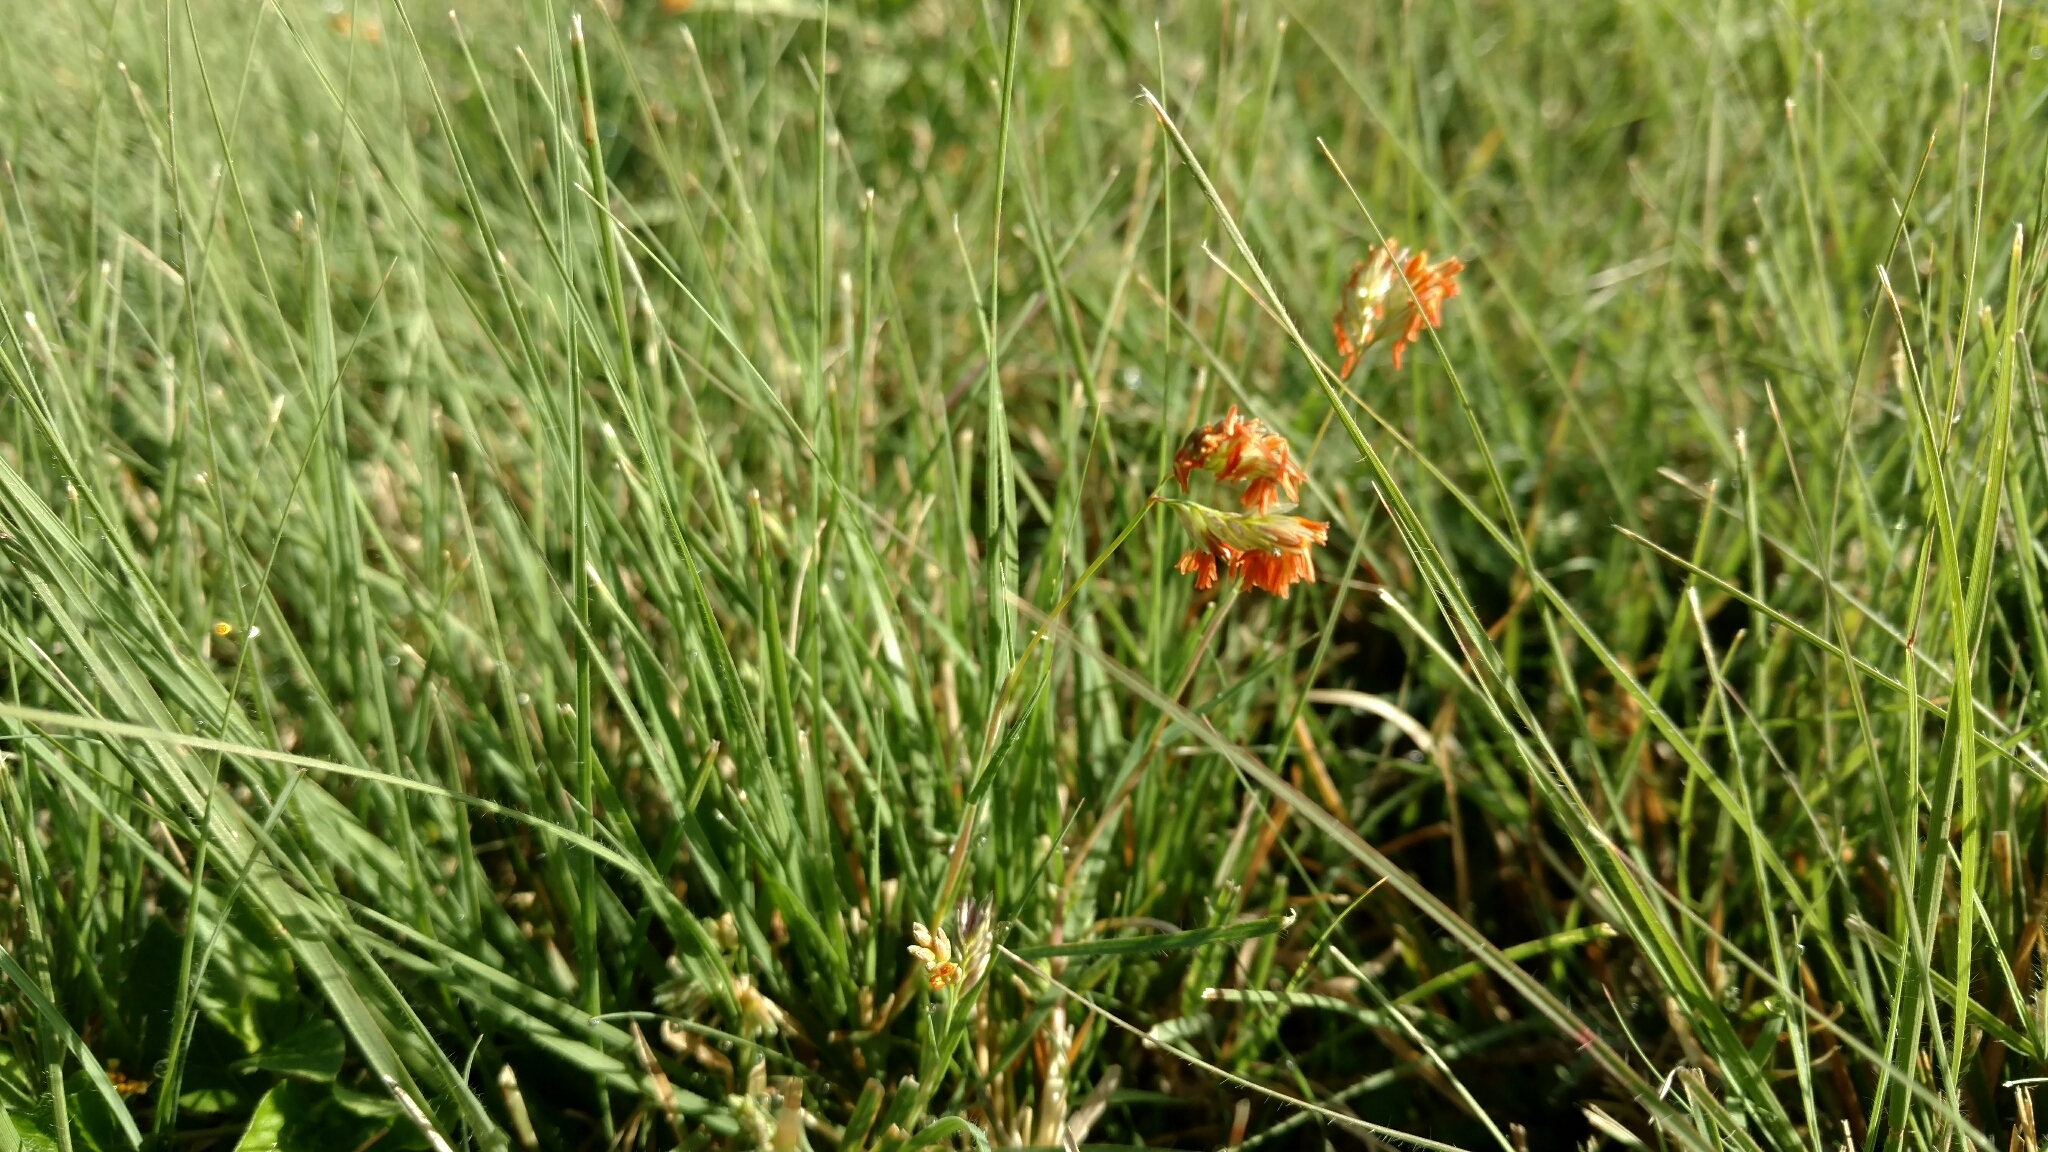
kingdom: Plantae
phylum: Tracheophyta
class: Liliopsida
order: Poales
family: Poaceae
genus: Bouteloua
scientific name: Bouteloua dactyloides
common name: Buffalo grass
